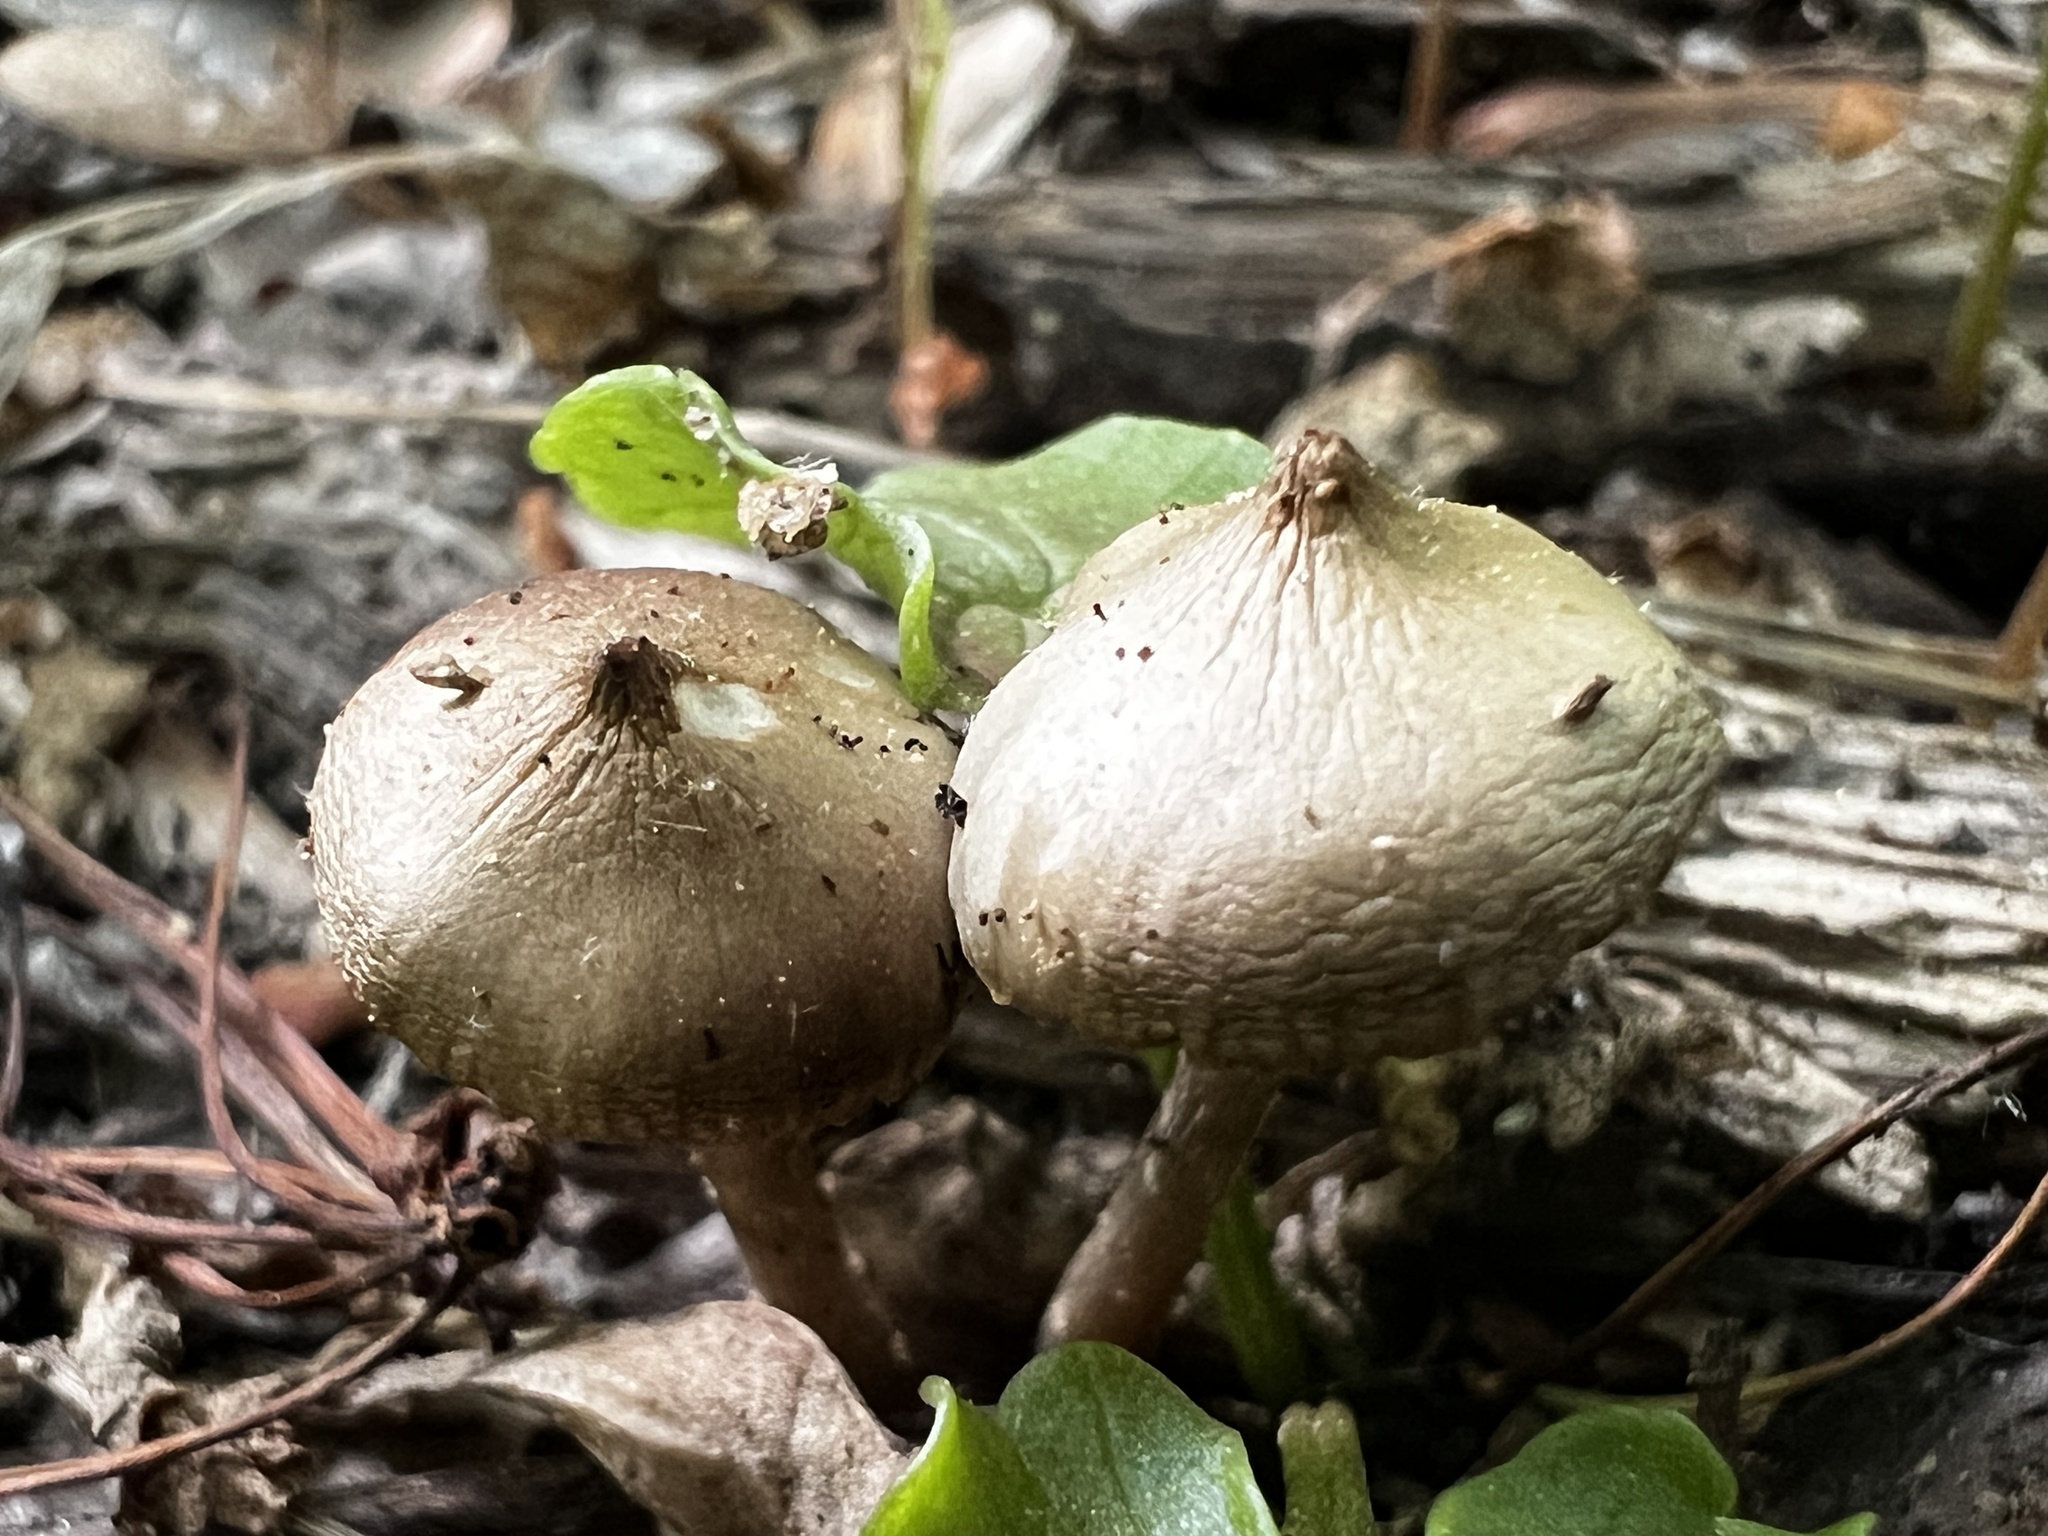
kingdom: Fungi
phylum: Basidiomycota
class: Agaricomycetes
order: Agaricales
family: Hymenogastraceae
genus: Psilocybe
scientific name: Psilocybe ovoideocystidiata
